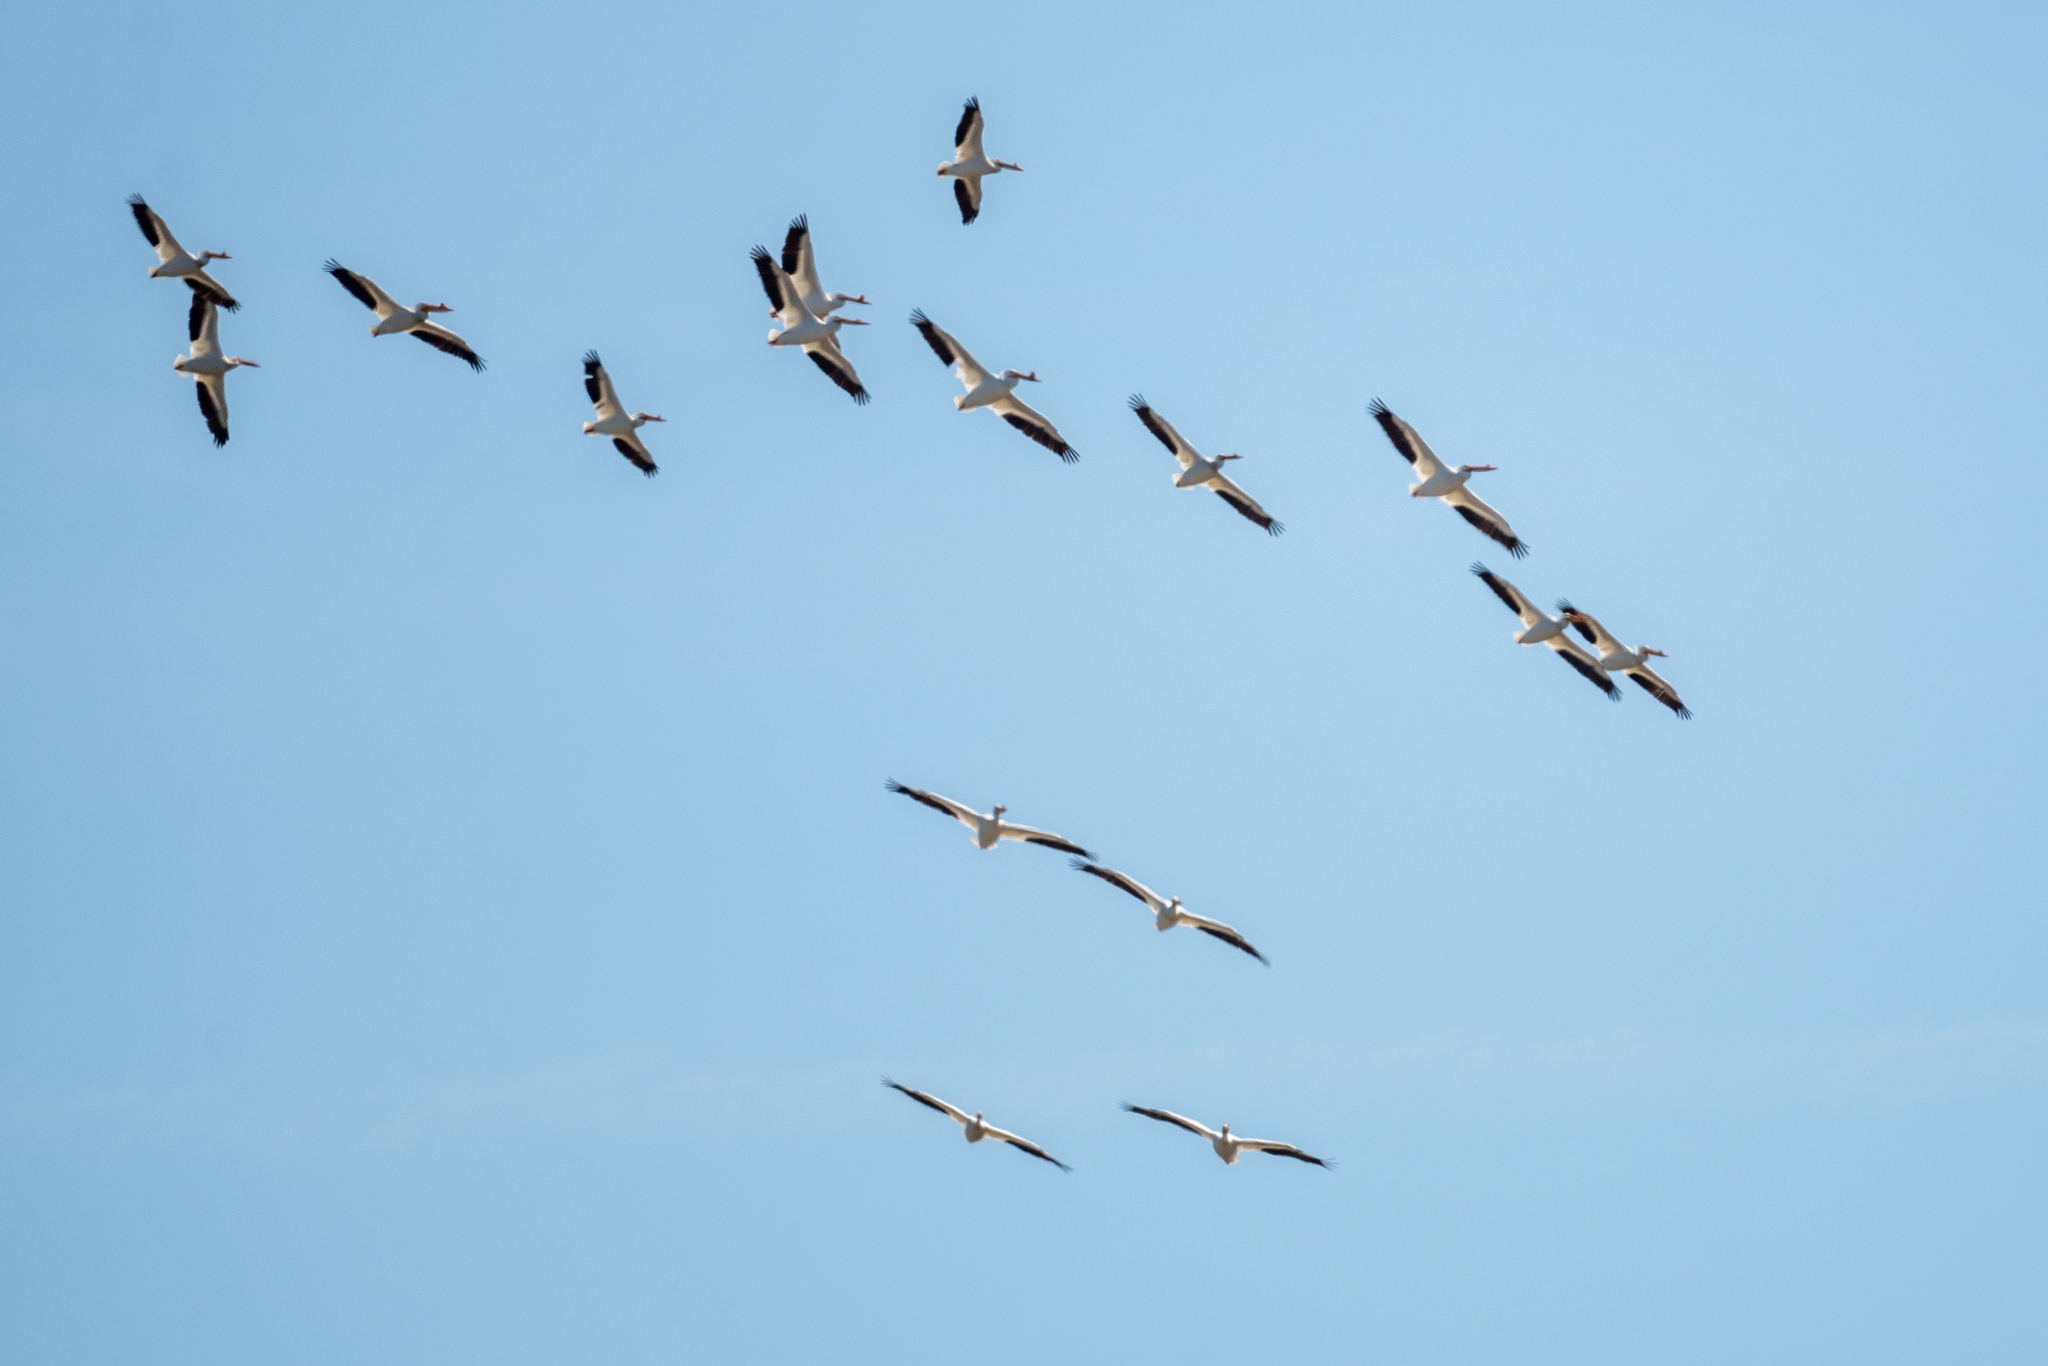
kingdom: Animalia
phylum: Chordata
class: Aves
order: Pelecaniformes
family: Pelecanidae
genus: Pelecanus
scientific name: Pelecanus erythrorhynchos
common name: American white pelican
